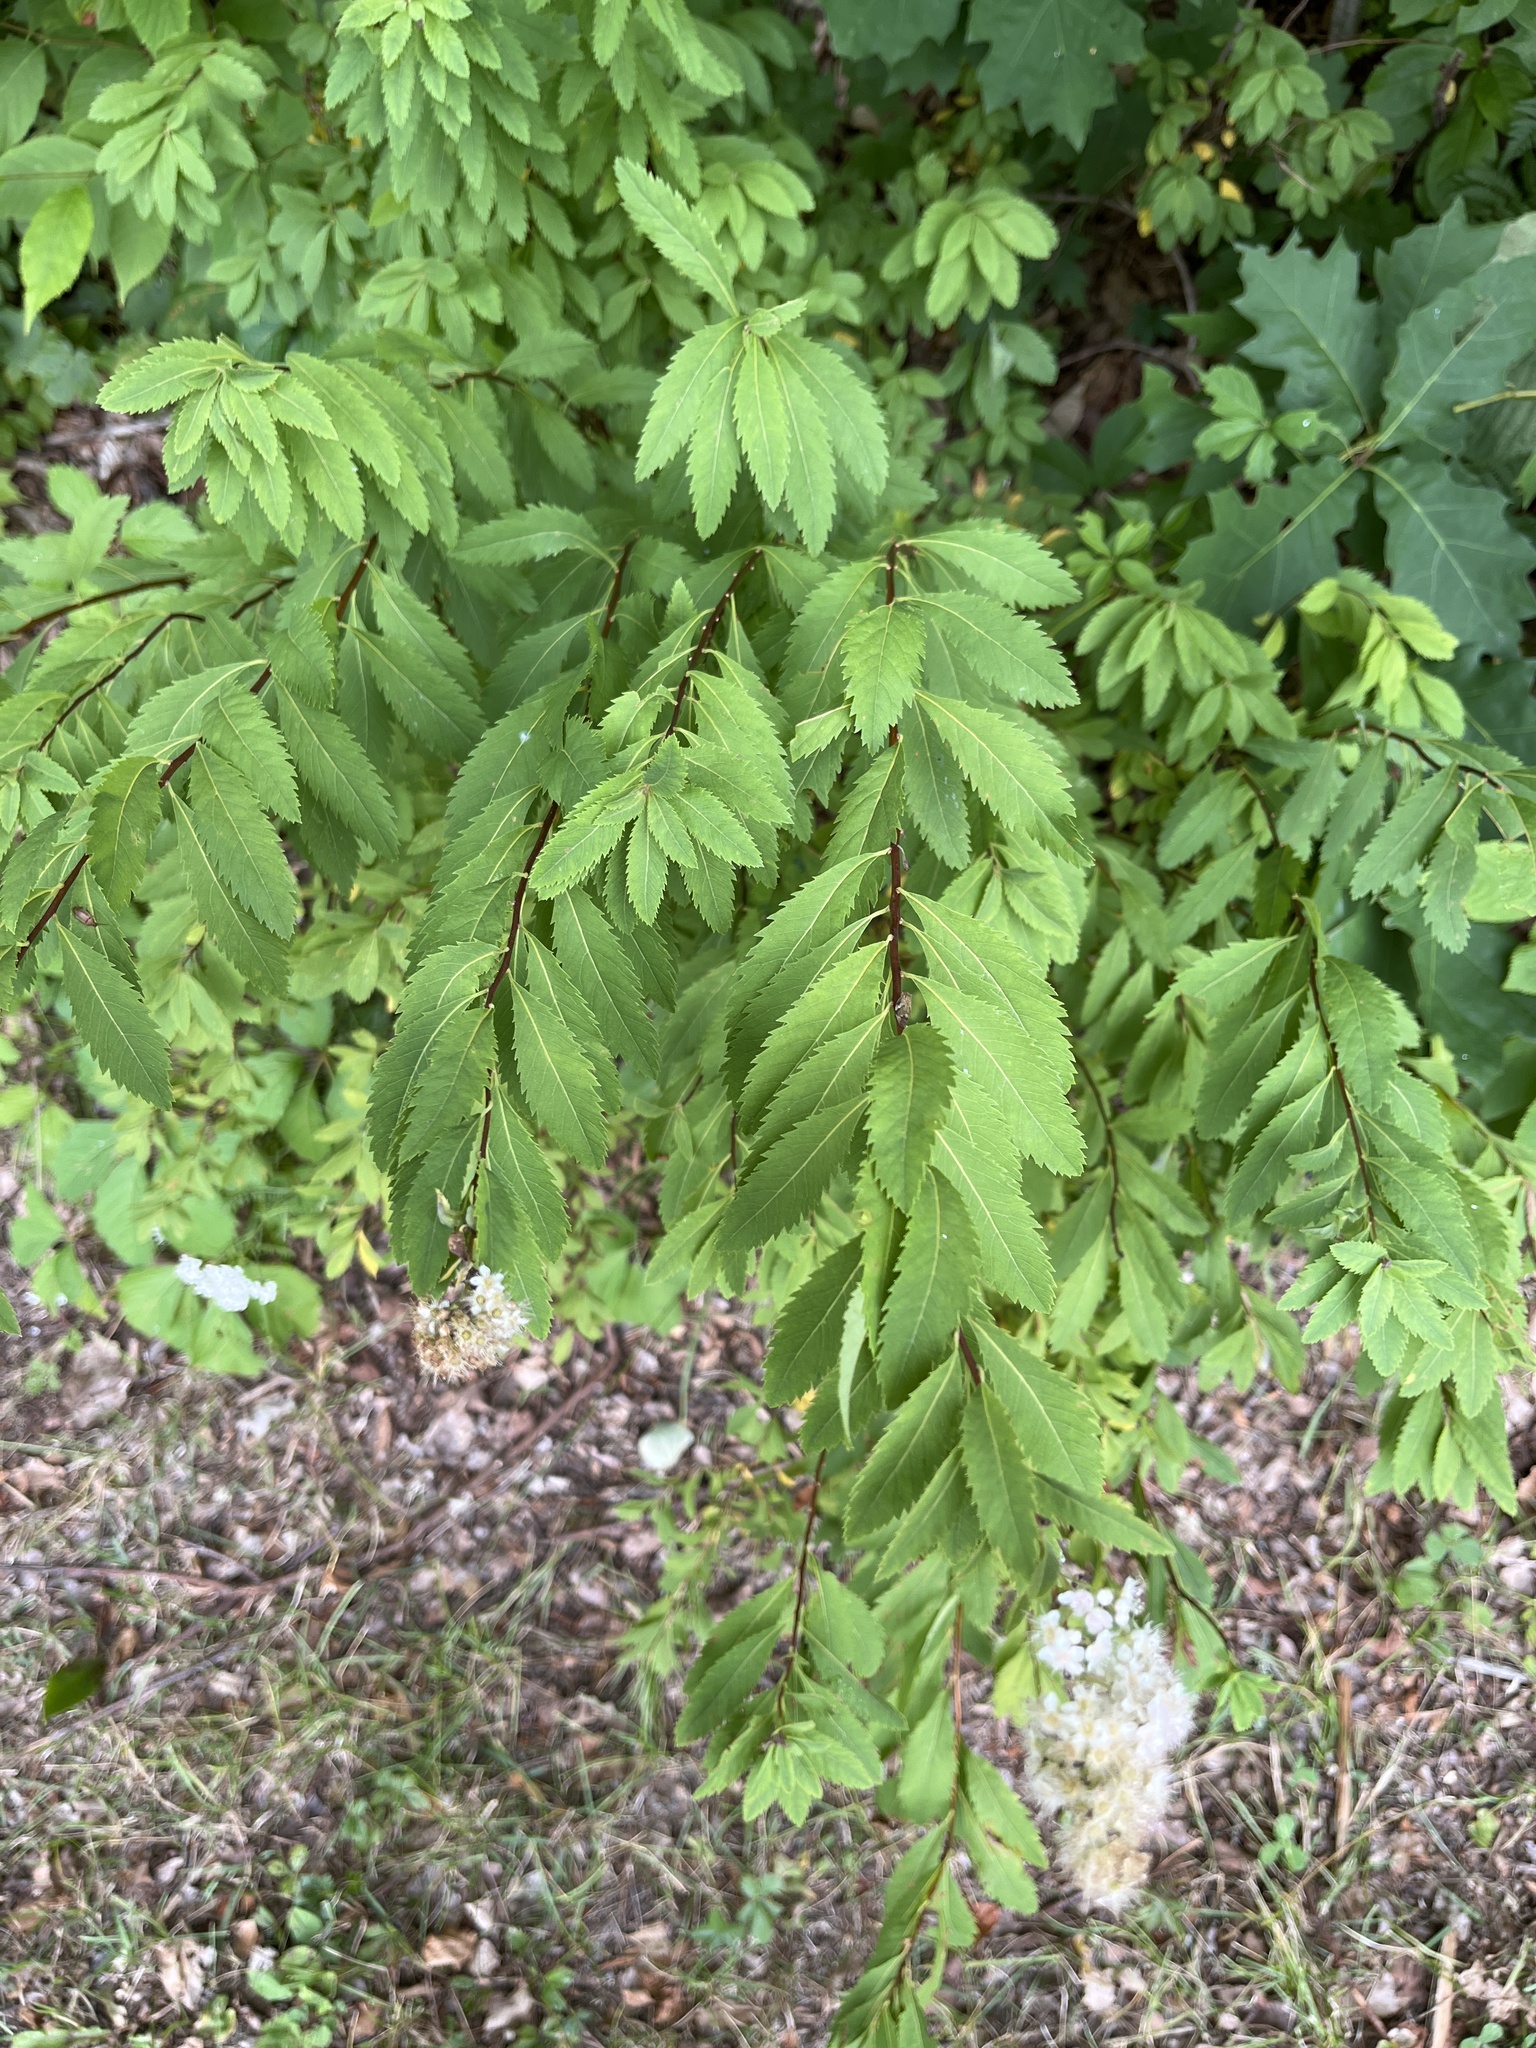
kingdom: Plantae
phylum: Tracheophyta
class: Magnoliopsida
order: Rosales
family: Rosaceae
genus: Spiraea
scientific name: Spiraea alba
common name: Pale bridewort
